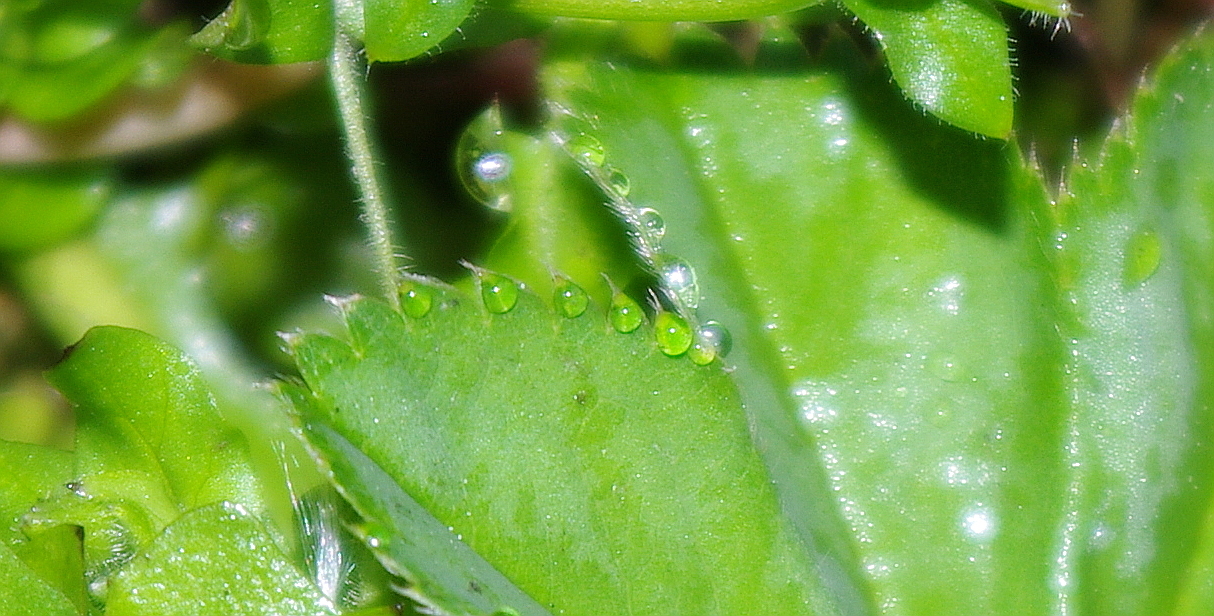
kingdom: Plantae
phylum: Tracheophyta
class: Magnoliopsida
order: Rosales
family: Rosaceae
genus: Alchemilla
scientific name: Alchemilla filicaulis
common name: Hairy lady's-mantle
